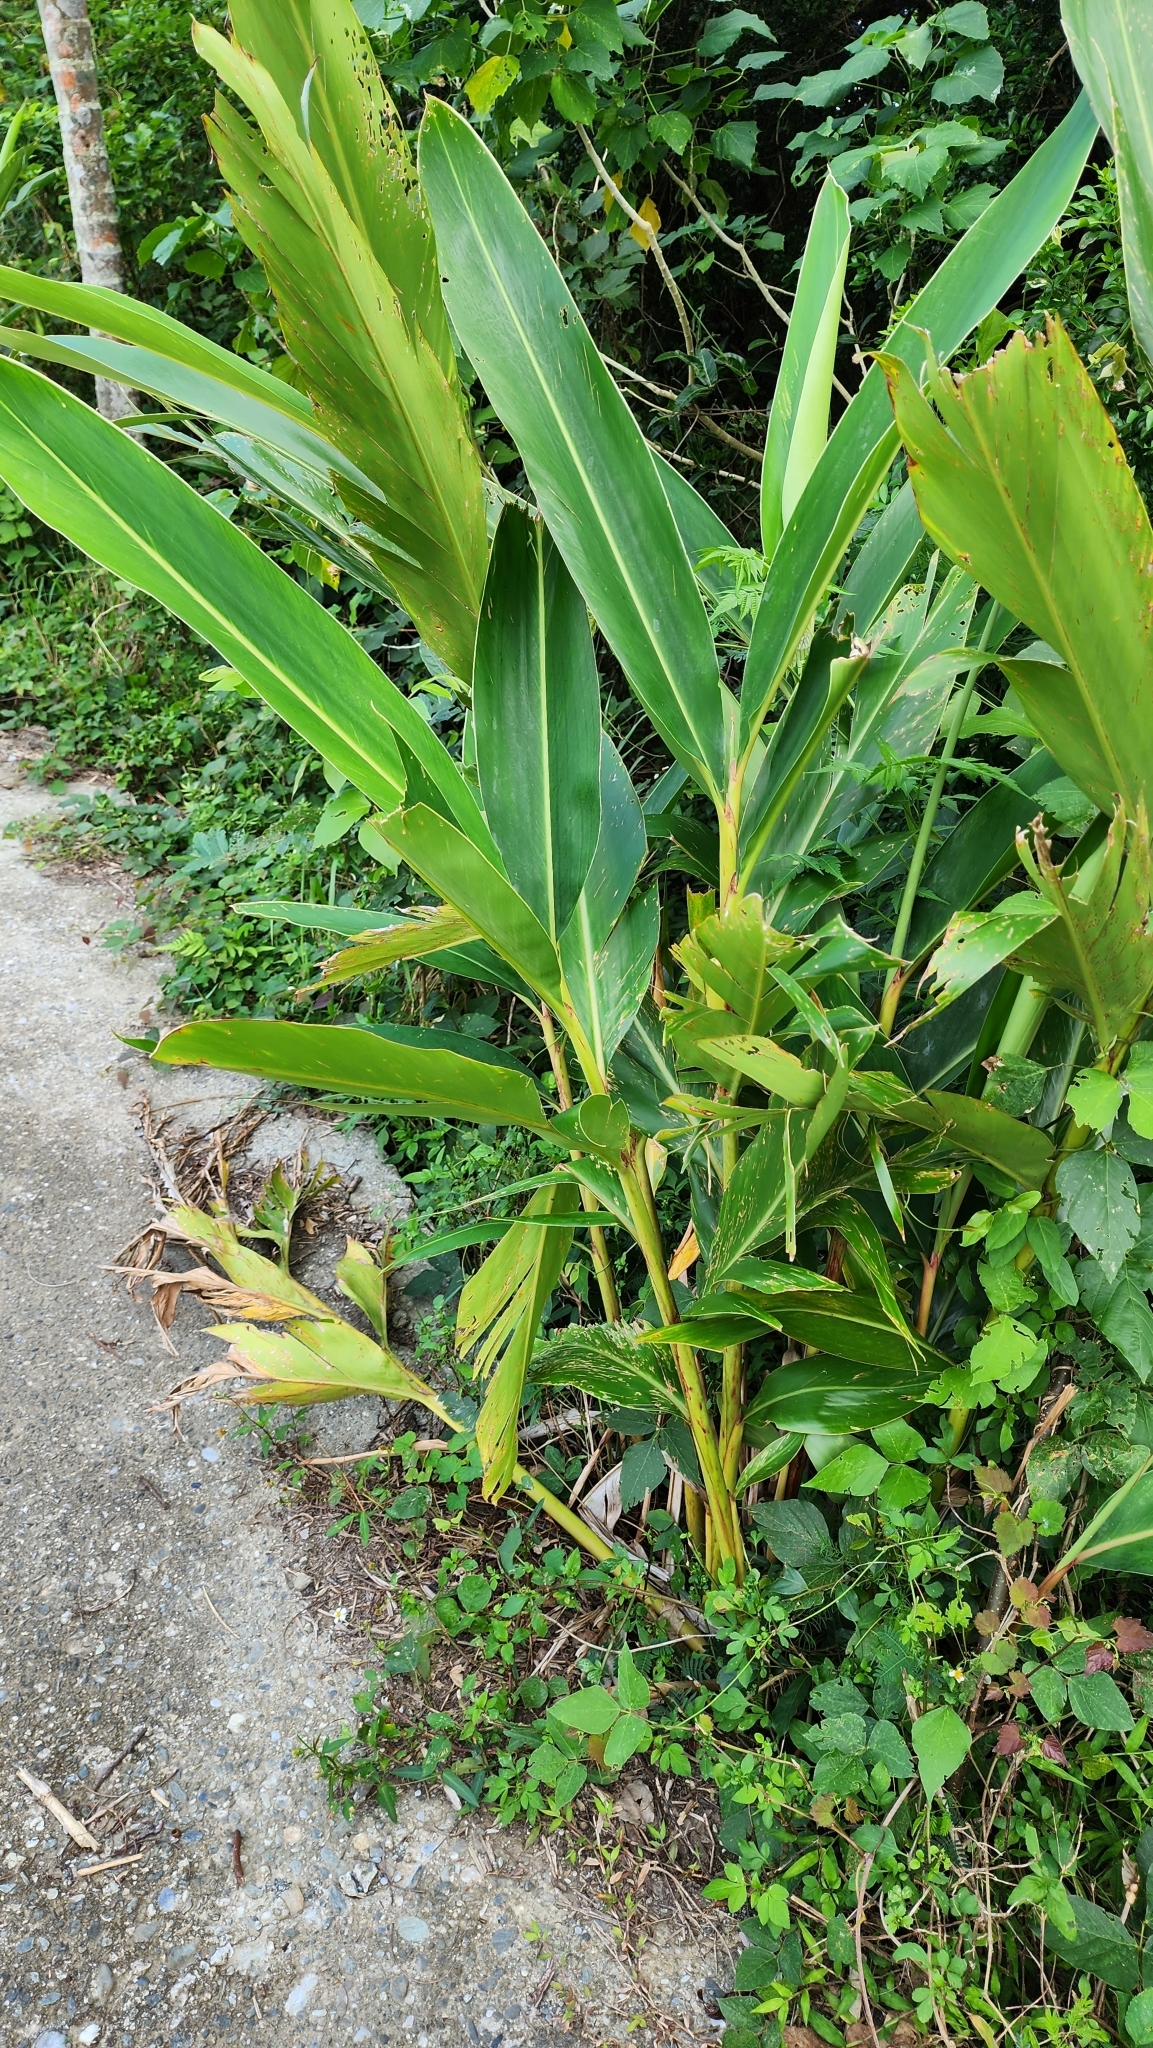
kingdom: Plantae
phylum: Tracheophyta
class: Liliopsida
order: Zingiberales
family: Zingiberaceae
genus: Alpinia
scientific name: Alpinia zerumbet
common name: Shellplant
